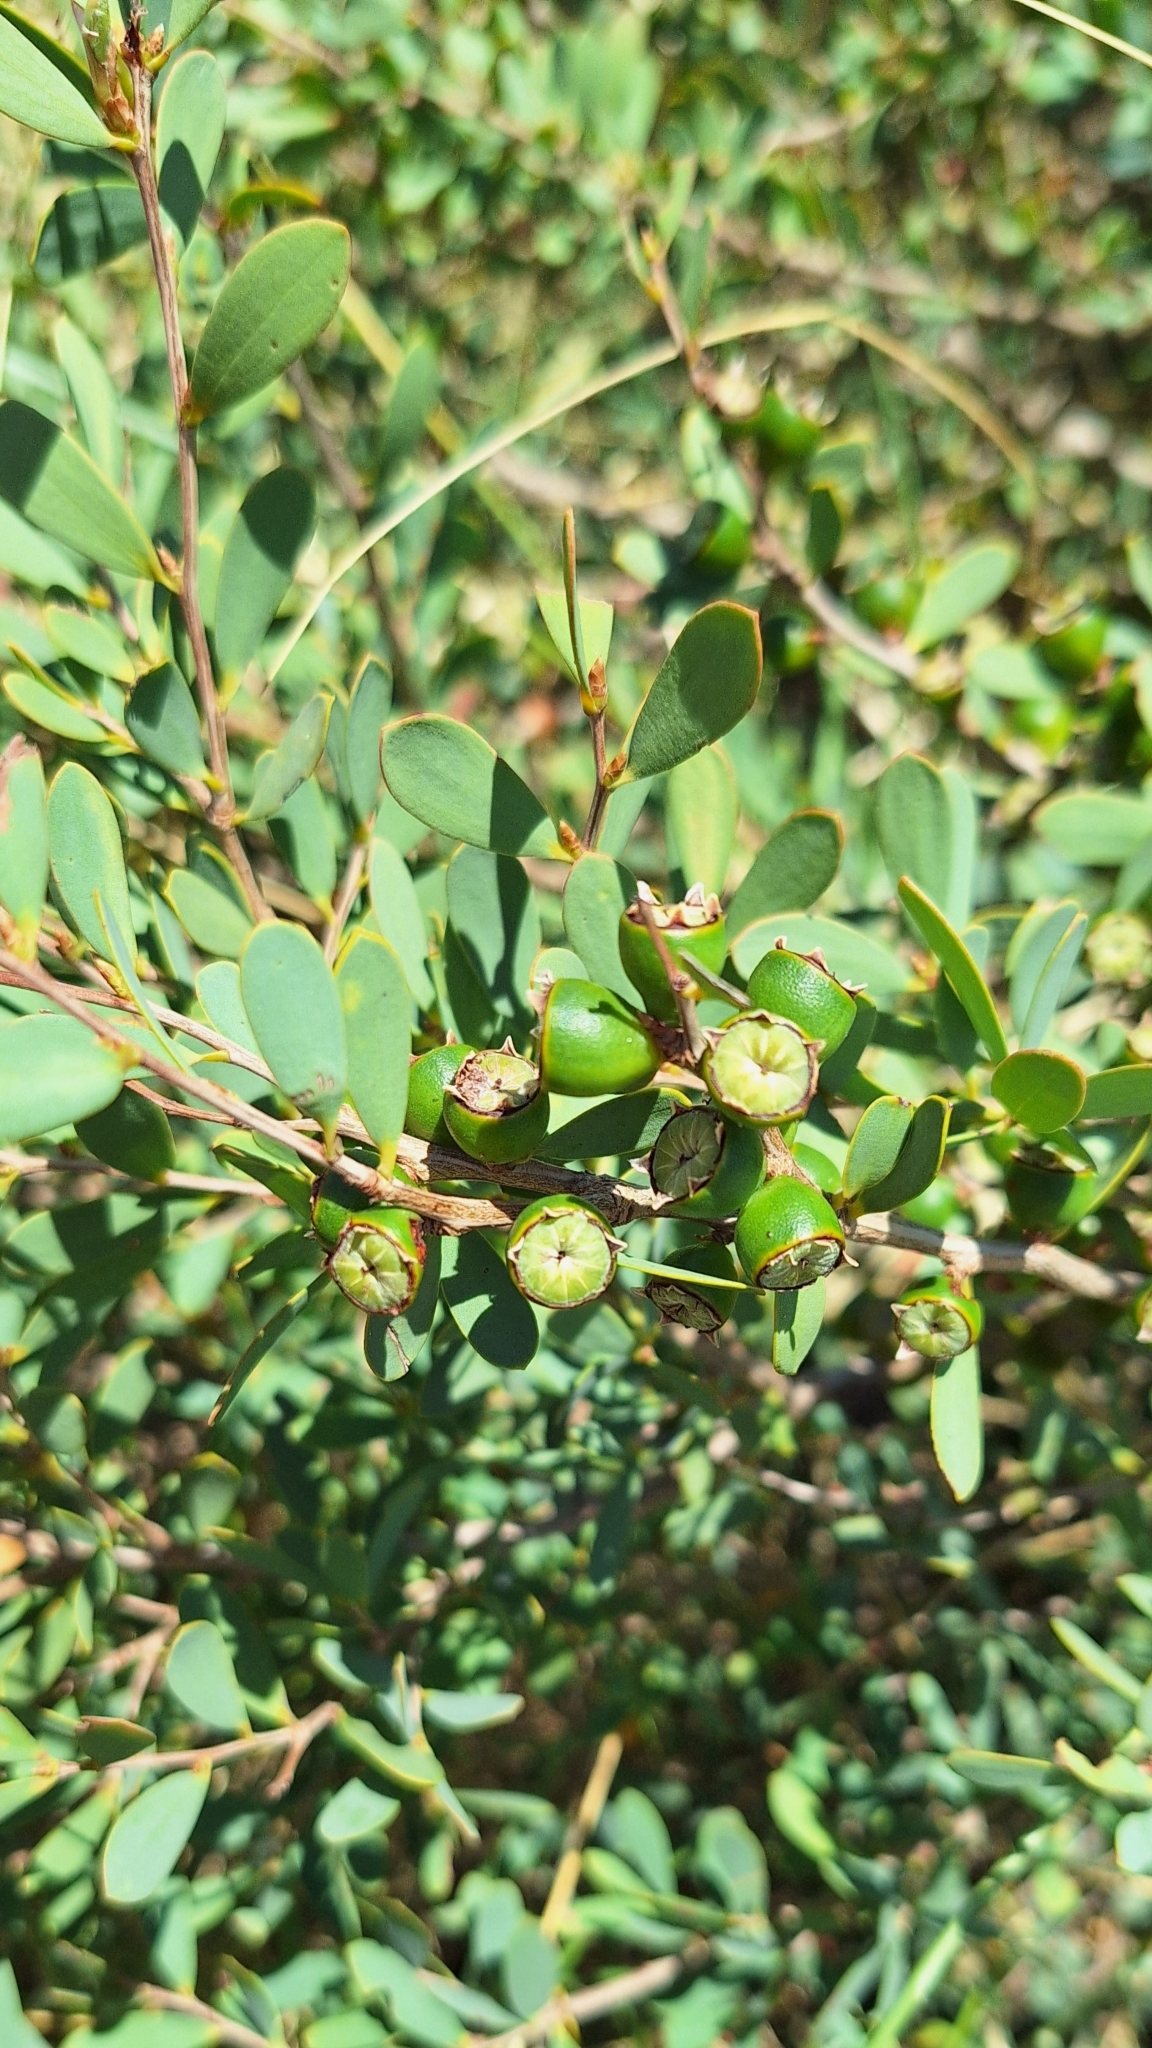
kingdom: Plantae
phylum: Tracheophyta
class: Magnoliopsida
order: Myrtales
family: Myrtaceae
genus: Leptospermum
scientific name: Leptospermum laevigatum
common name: Australian teatree
